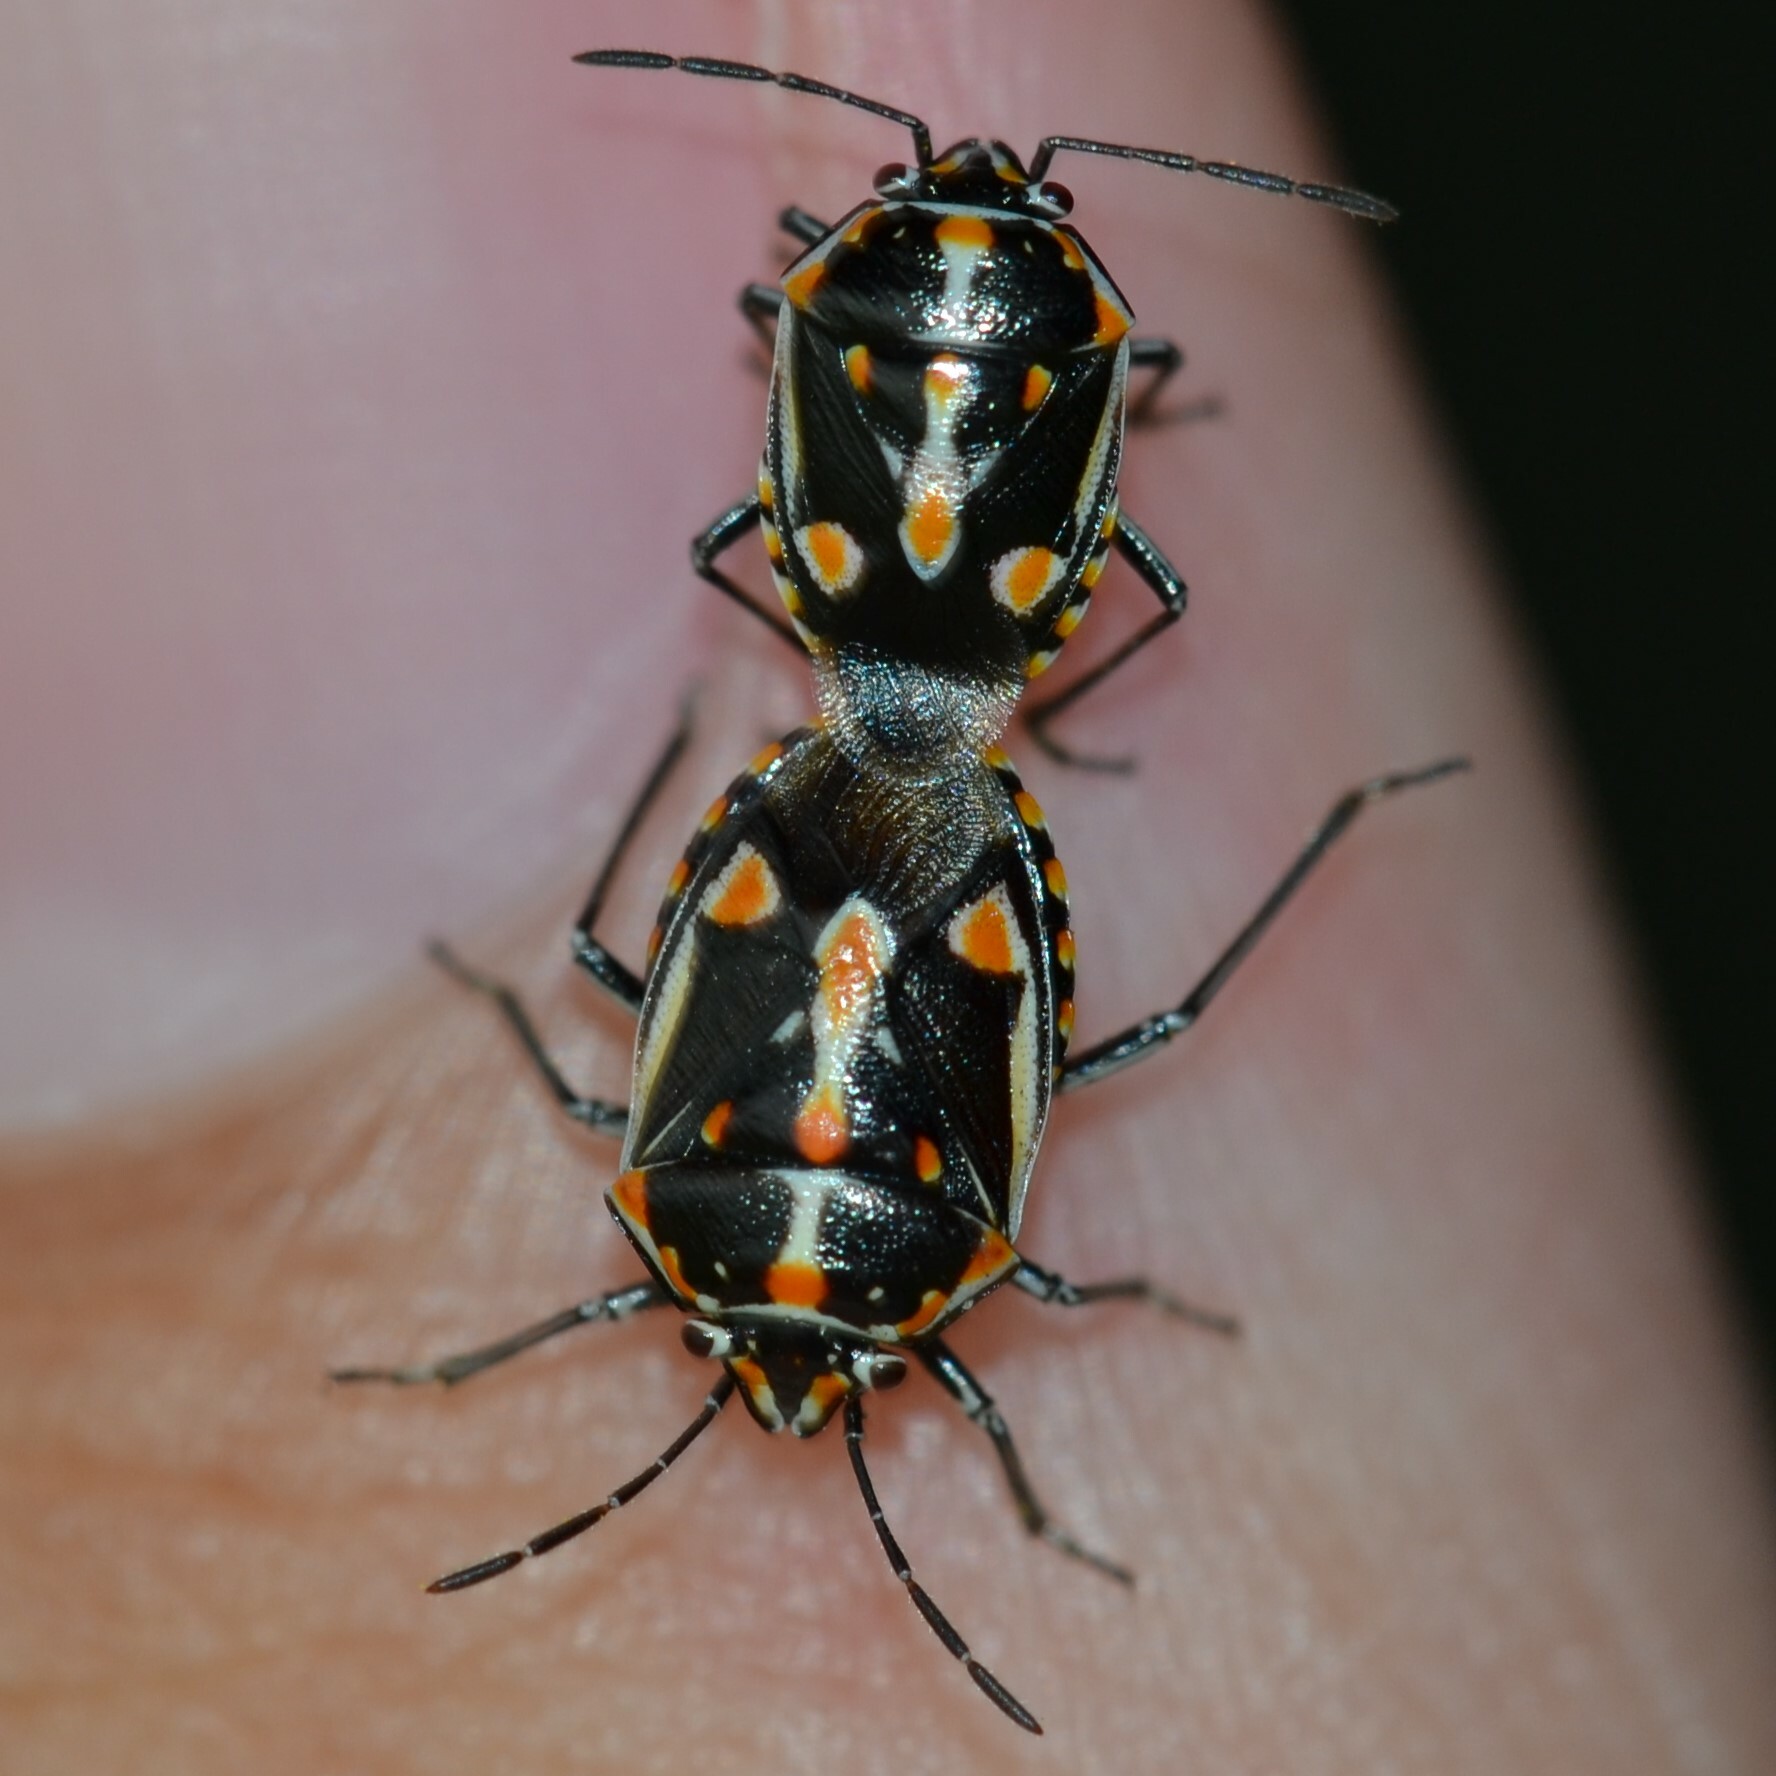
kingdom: Animalia
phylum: Arthropoda
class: Insecta
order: Hemiptera
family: Pentatomidae
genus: Bagrada
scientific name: Bagrada hilaris
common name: Bagrada bug
